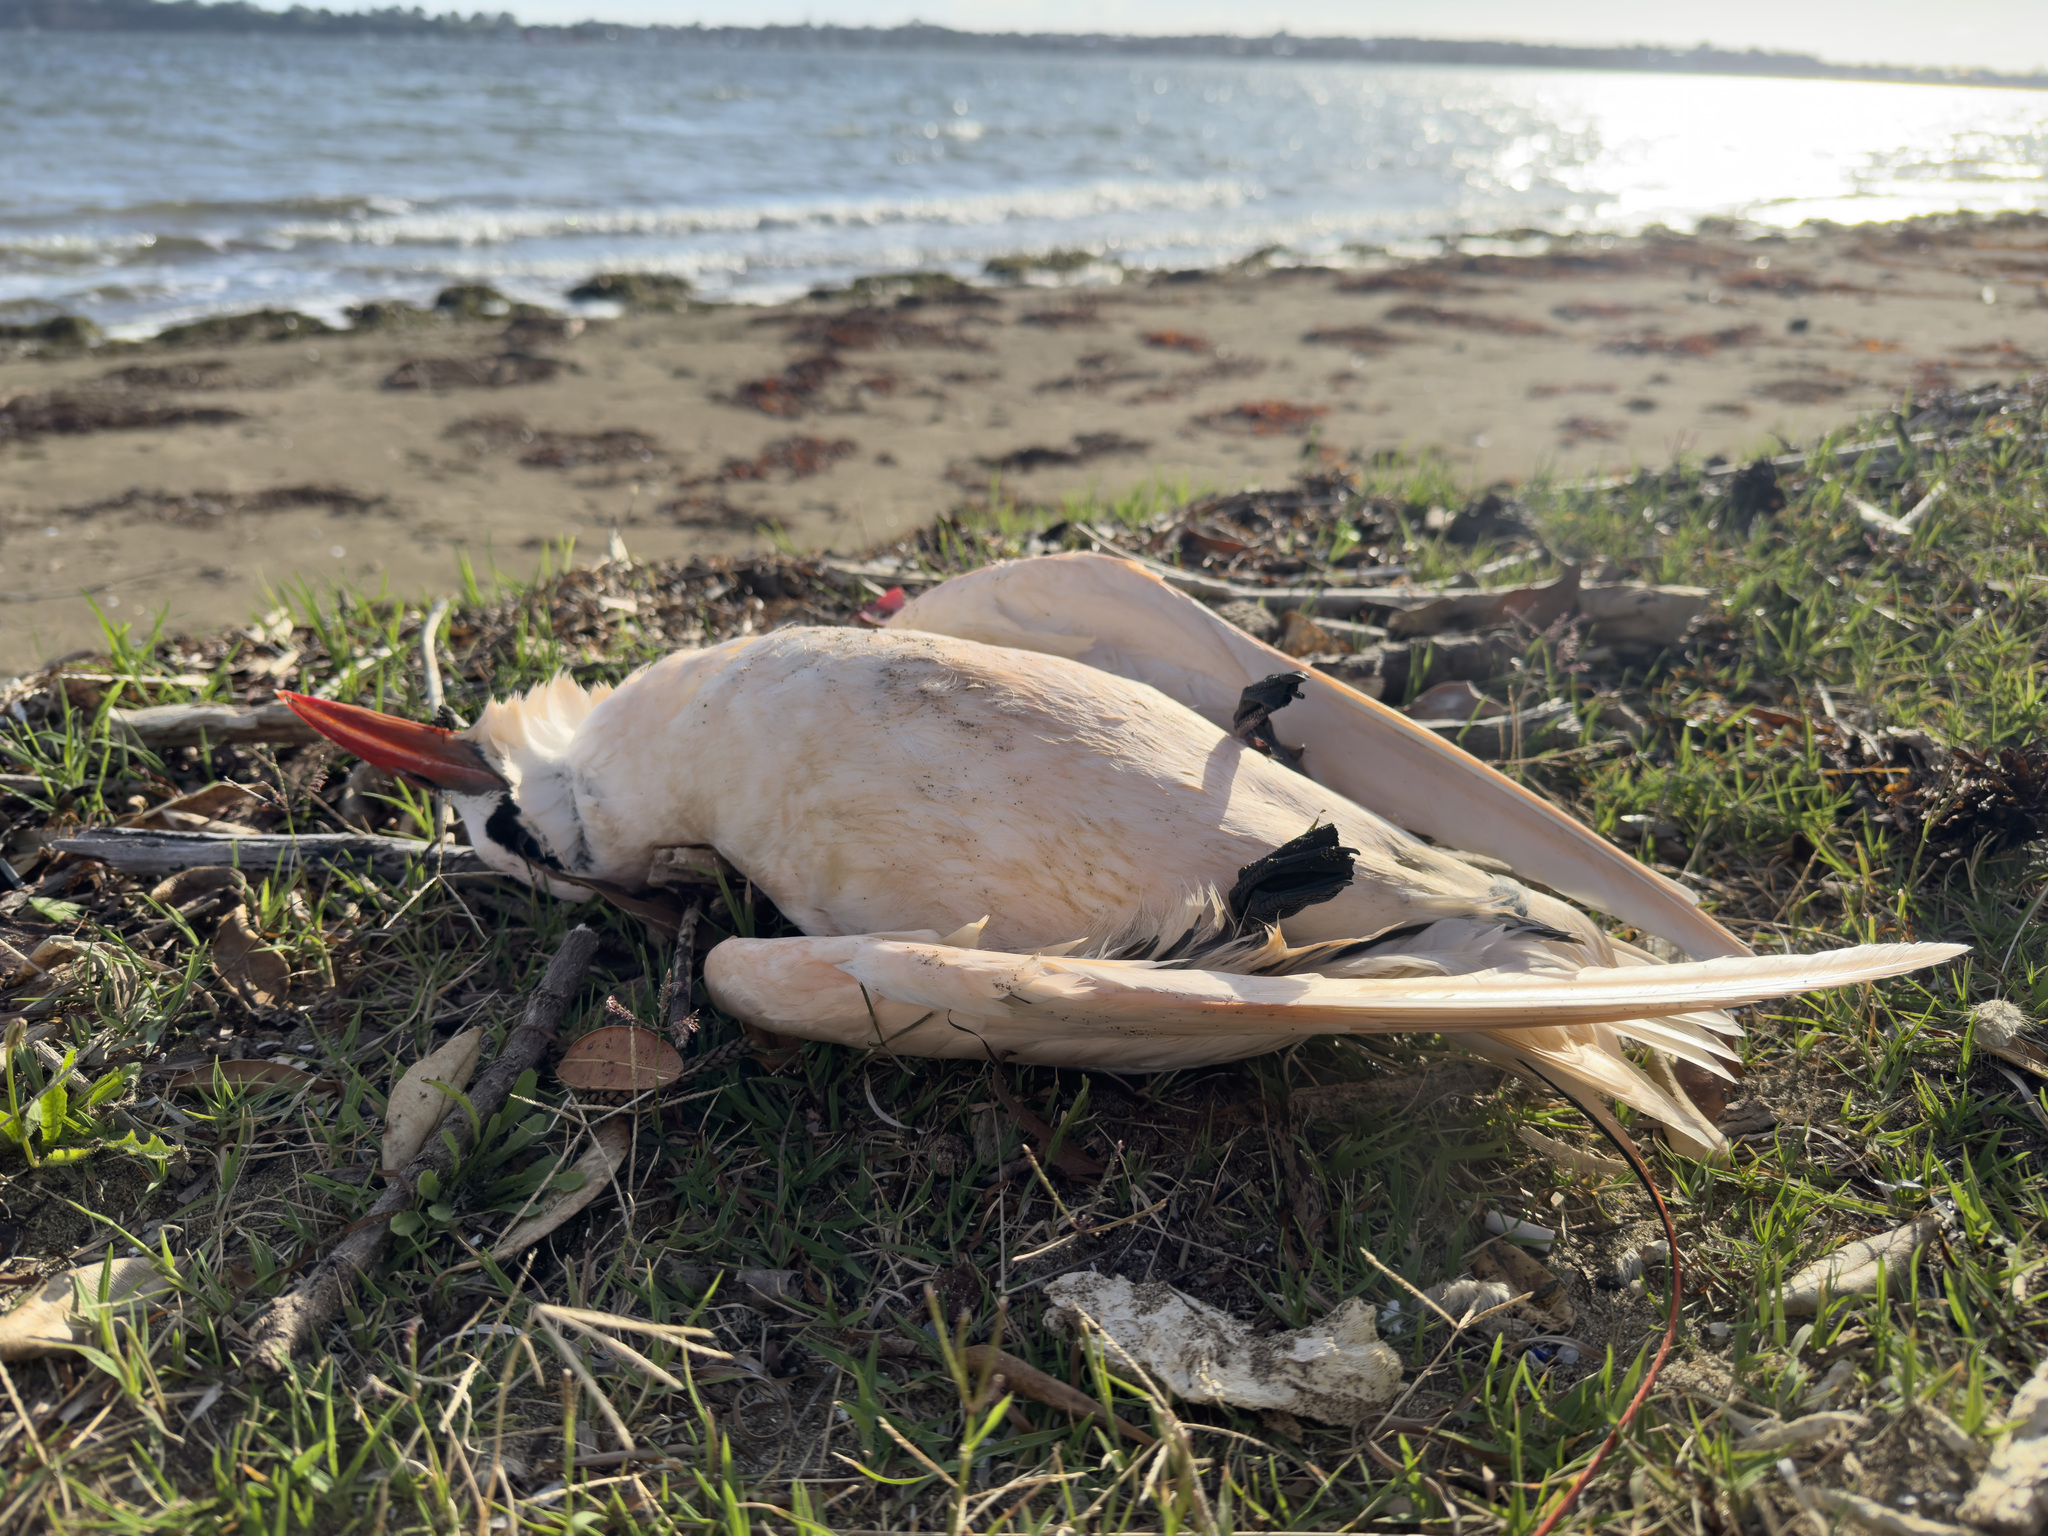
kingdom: Animalia
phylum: Chordata
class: Aves
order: Phaethontiformes
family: Phaethontidae
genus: Phaethon
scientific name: Phaethon rubricauda
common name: Red-tailed tropicbird
